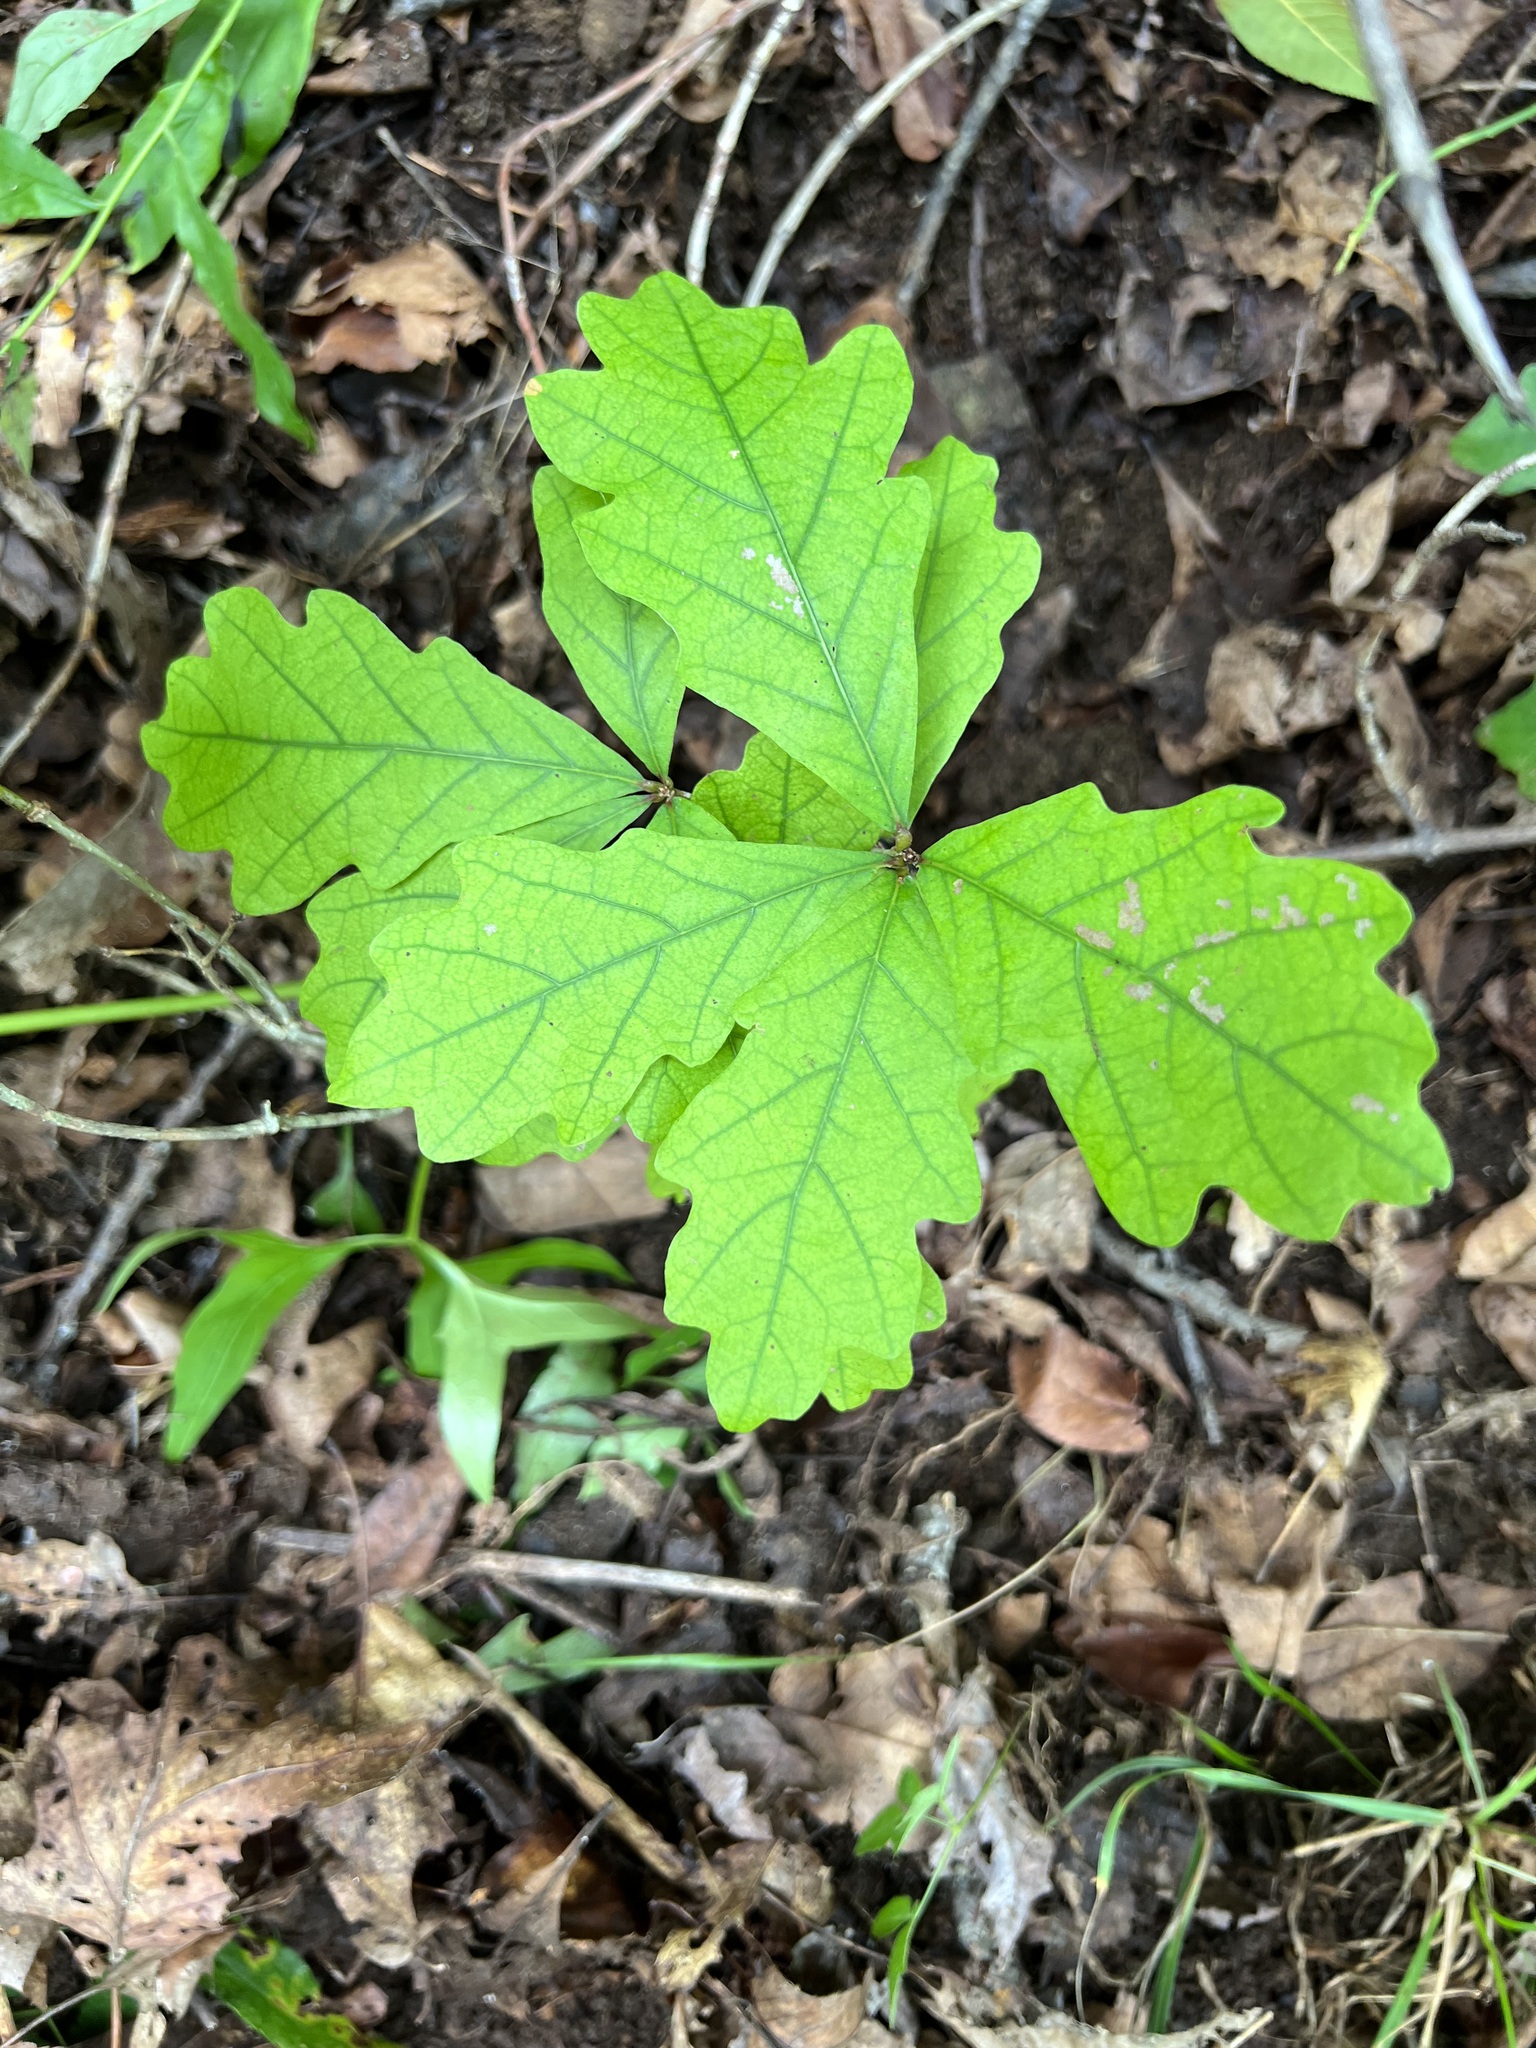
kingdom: Plantae
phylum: Tracheophyta
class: Magnoliopsida
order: Fagales
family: Fagaceae
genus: Quercus
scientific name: Quercus alba
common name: White oak
